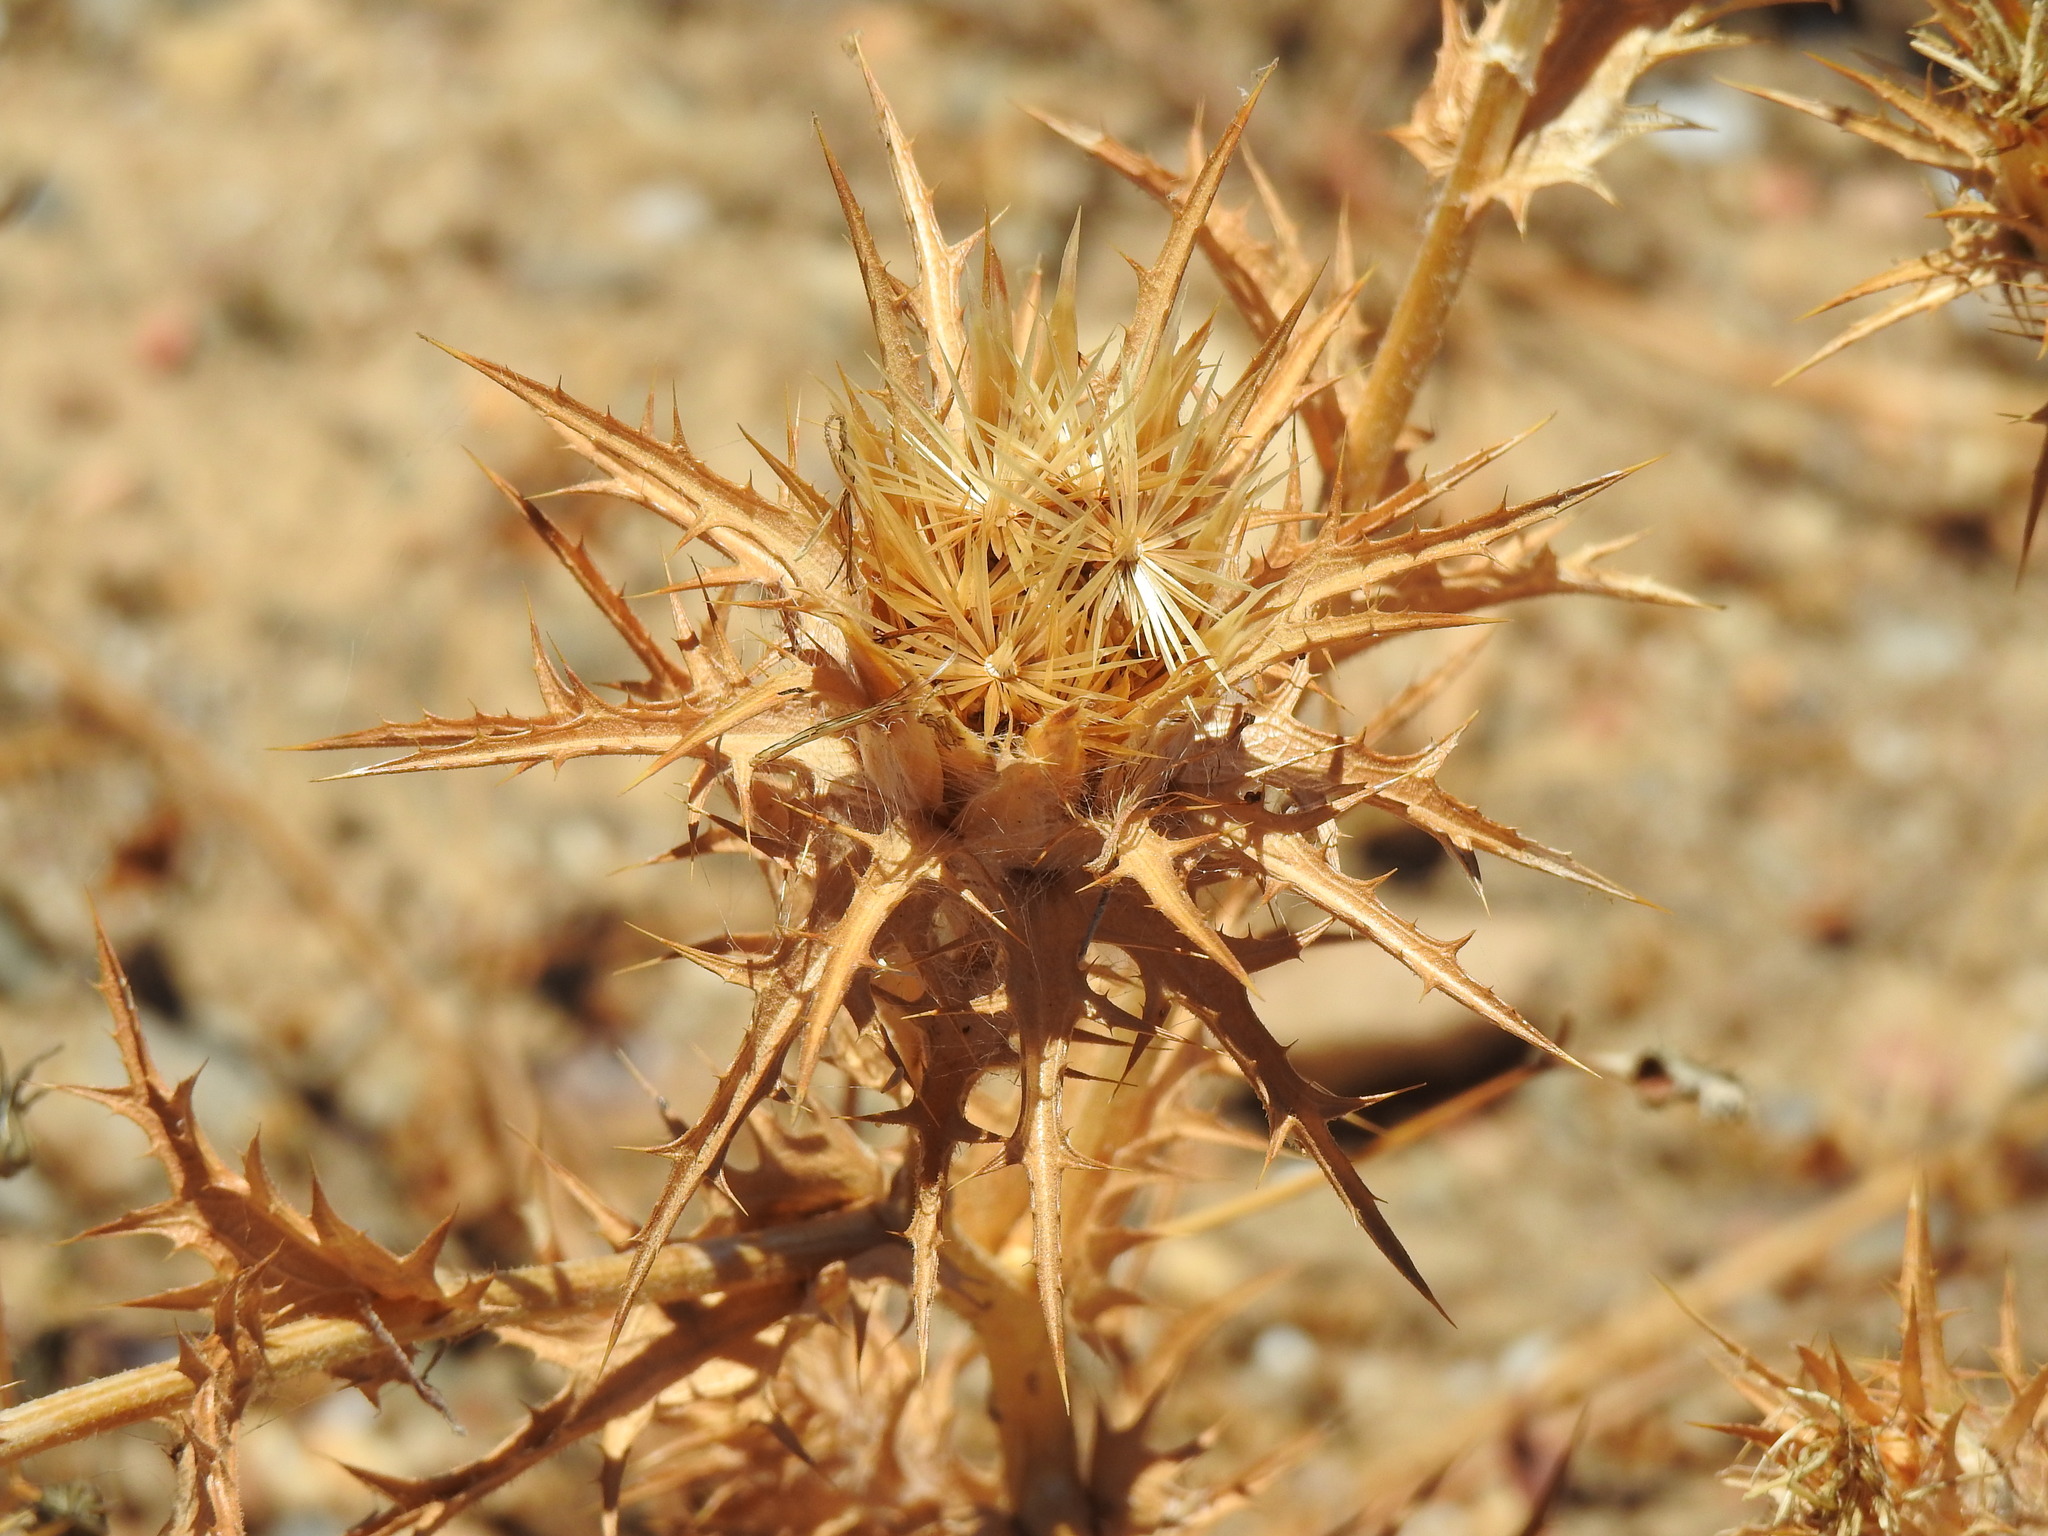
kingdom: Plantae
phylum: Tracheophyta
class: Magnoliopsida
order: Asterales
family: Asteraceae
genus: Carthamus
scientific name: Carthamus lanatus
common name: Downy safflower
